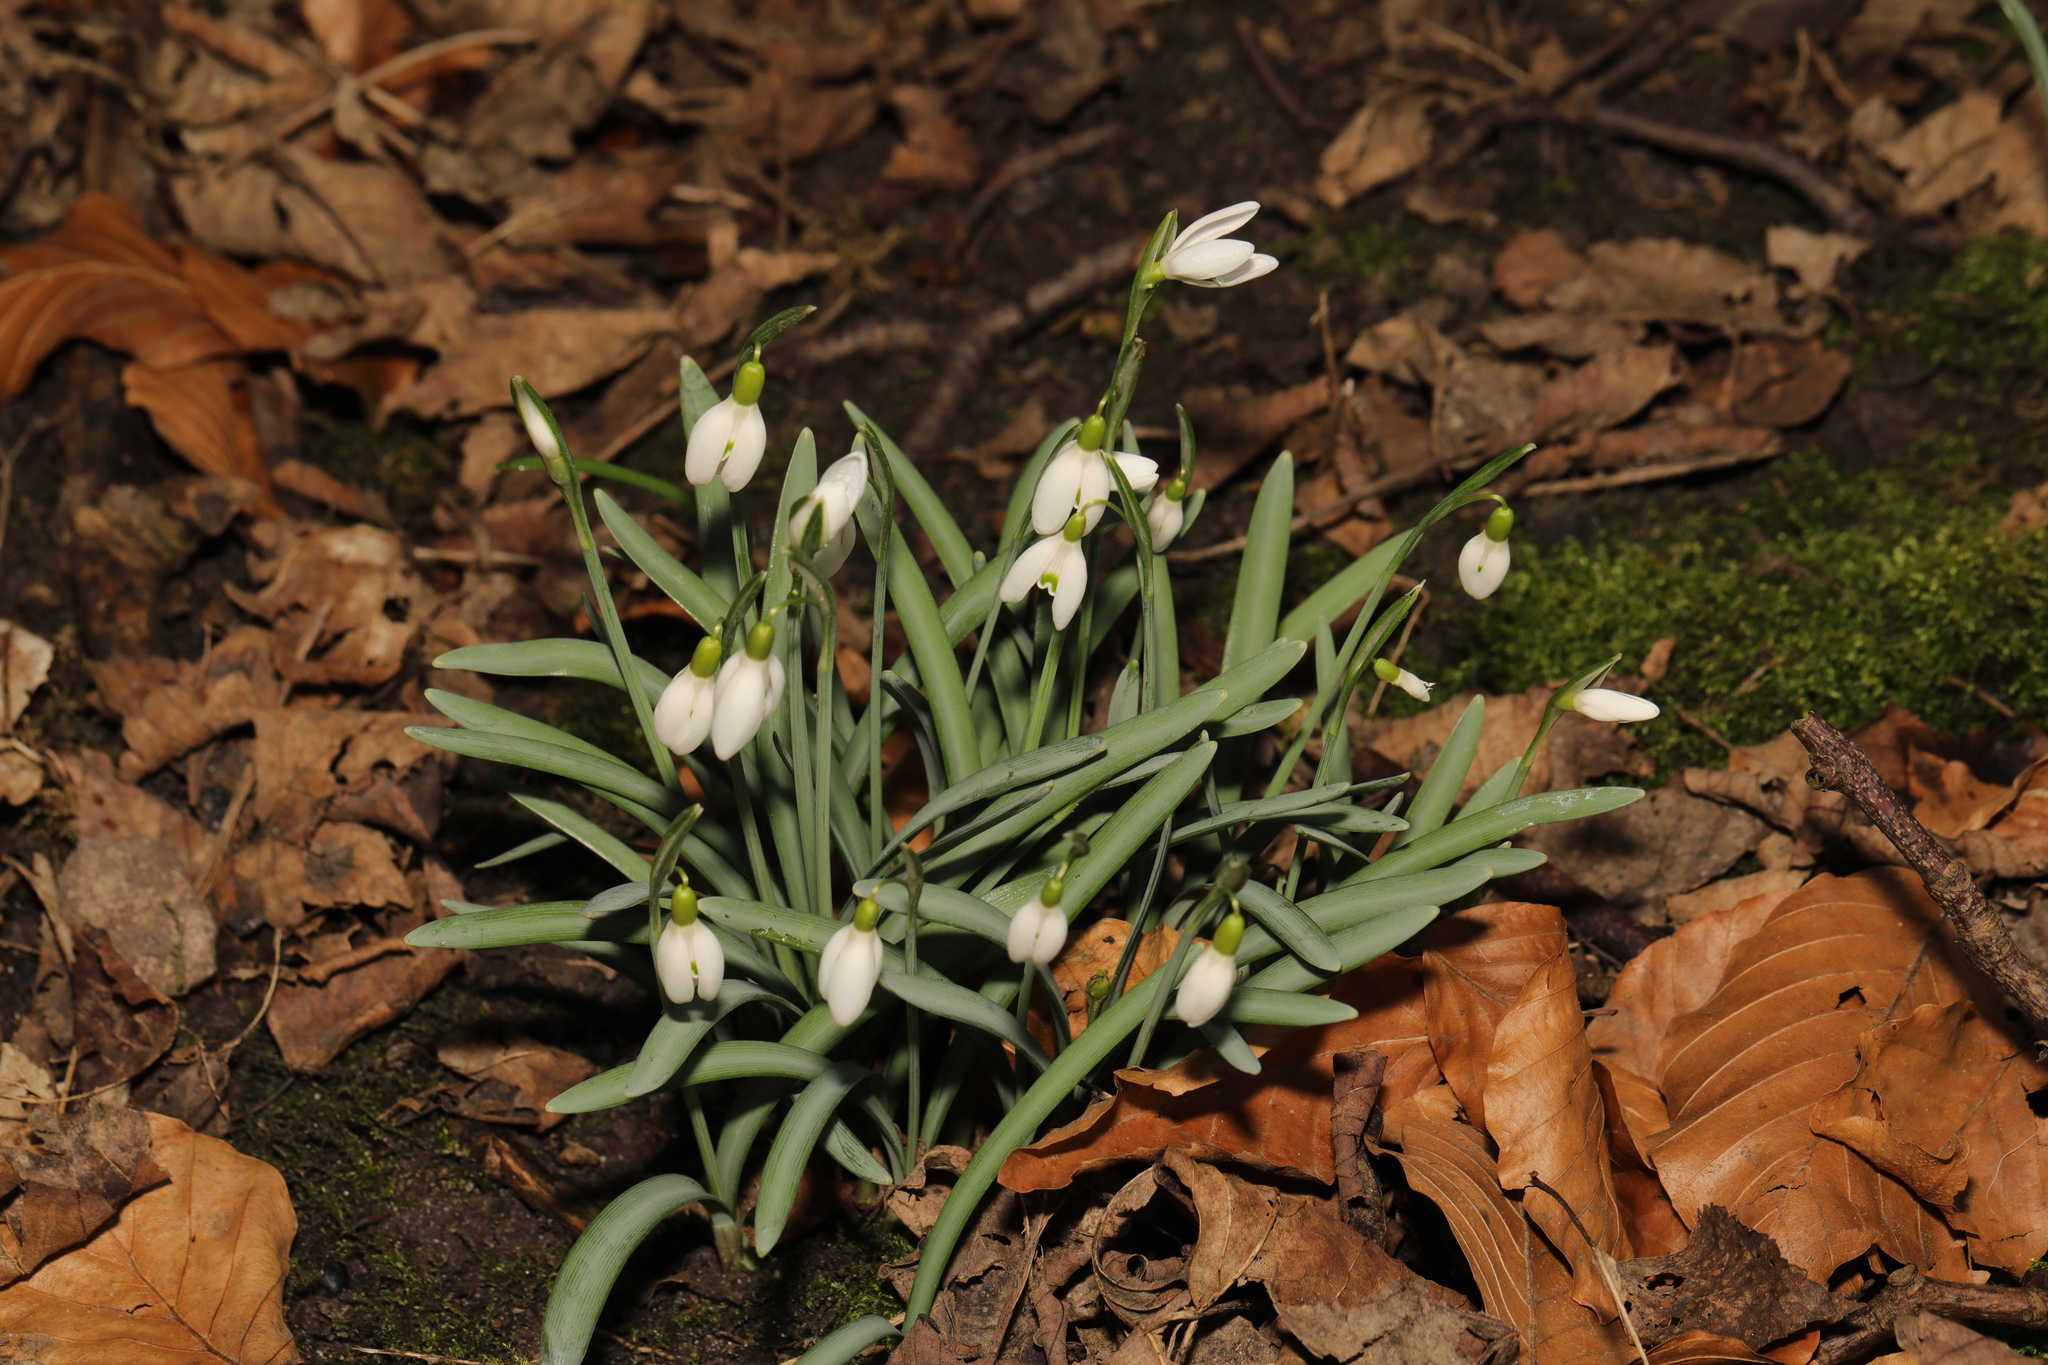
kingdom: Plantae
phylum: Tracheophyta
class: Liliopsida
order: Asparagales
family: Amaryllidaceae
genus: Galanthus
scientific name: Galanthus nivalis
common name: Snowdrop
